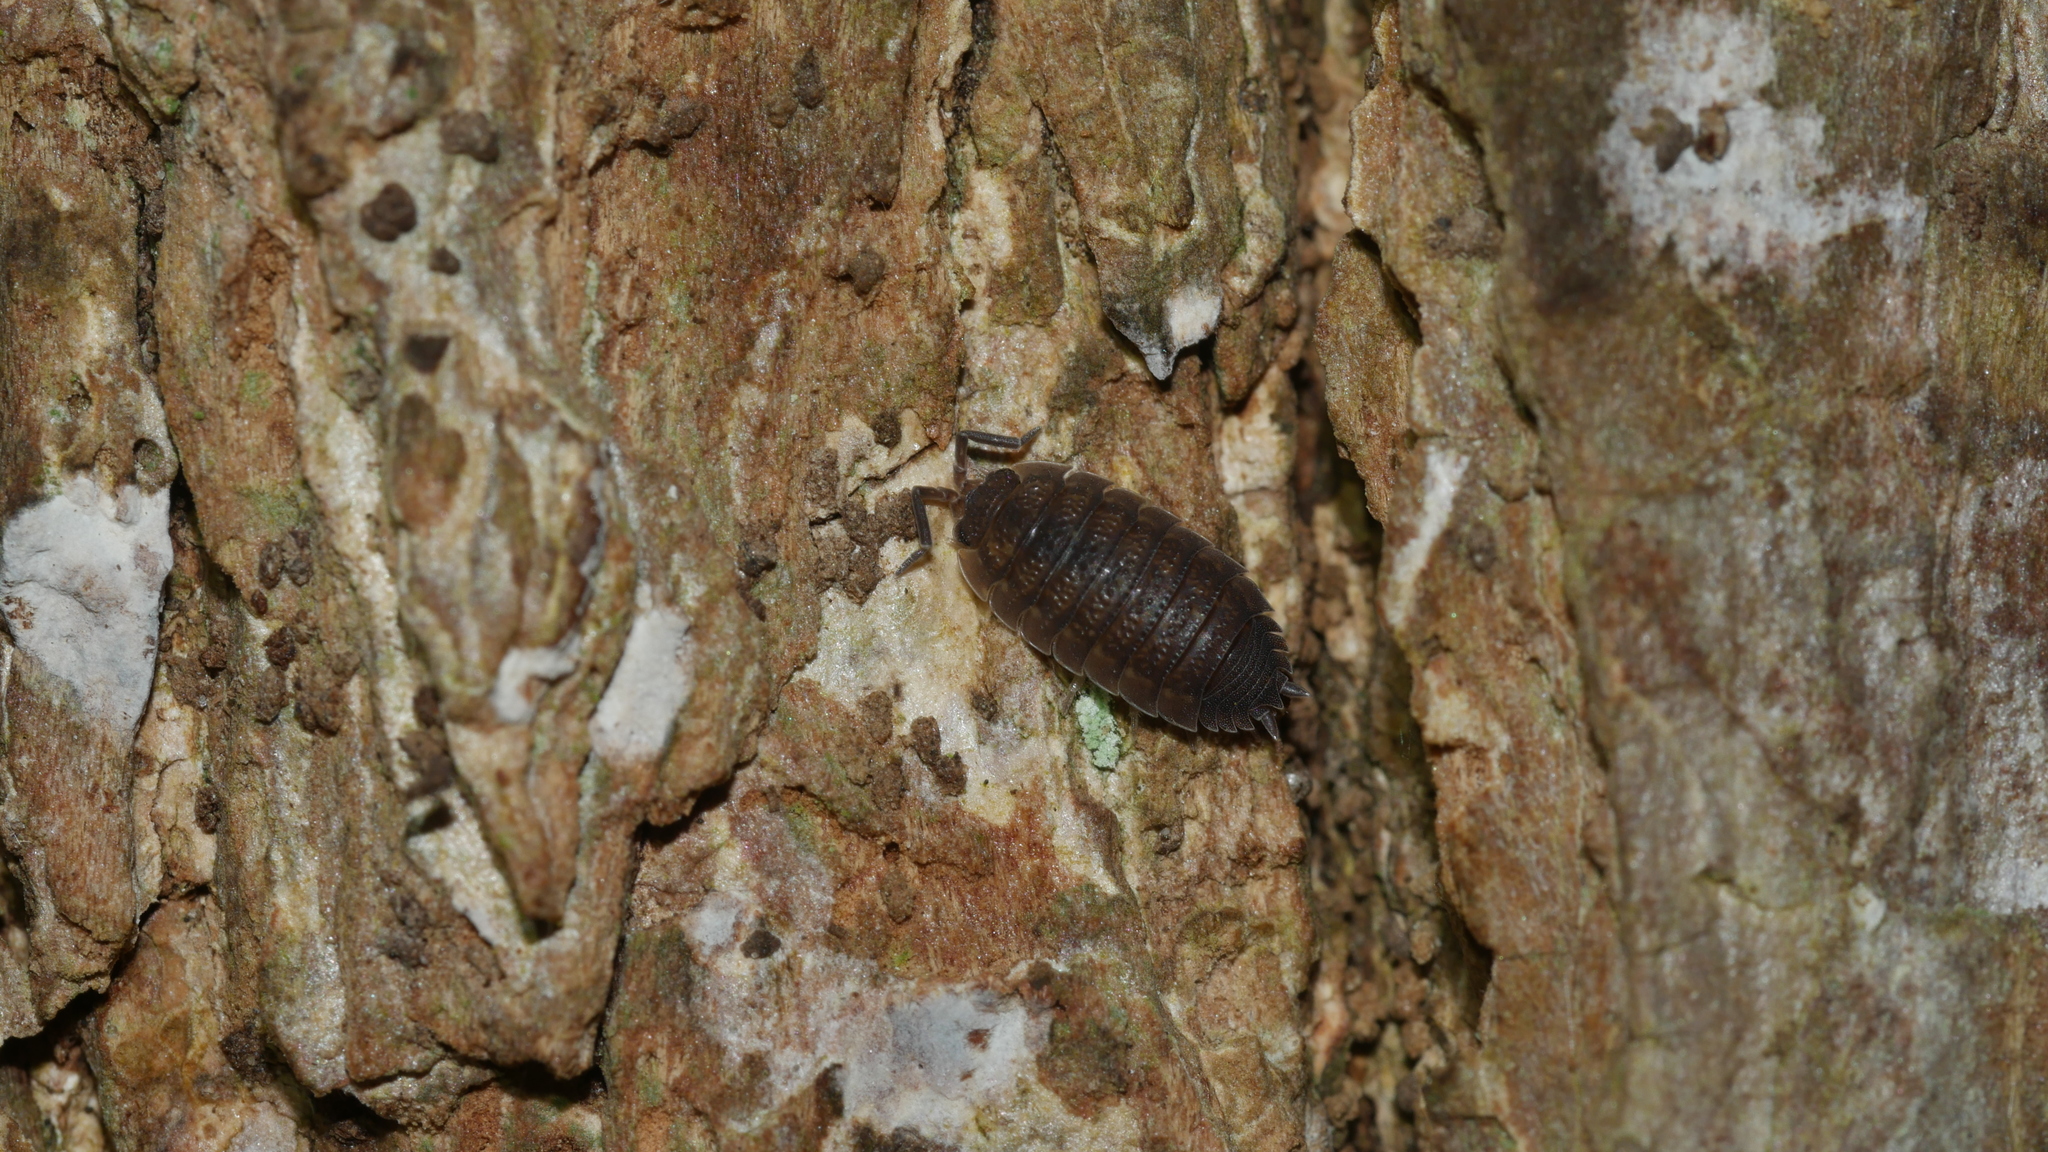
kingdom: Animalia
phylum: Arthropoda
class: Malacostraca
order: Isopoda
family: Porcellionidae
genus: Porcellio
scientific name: Porcellio scaber
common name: Common rough woodlouse
